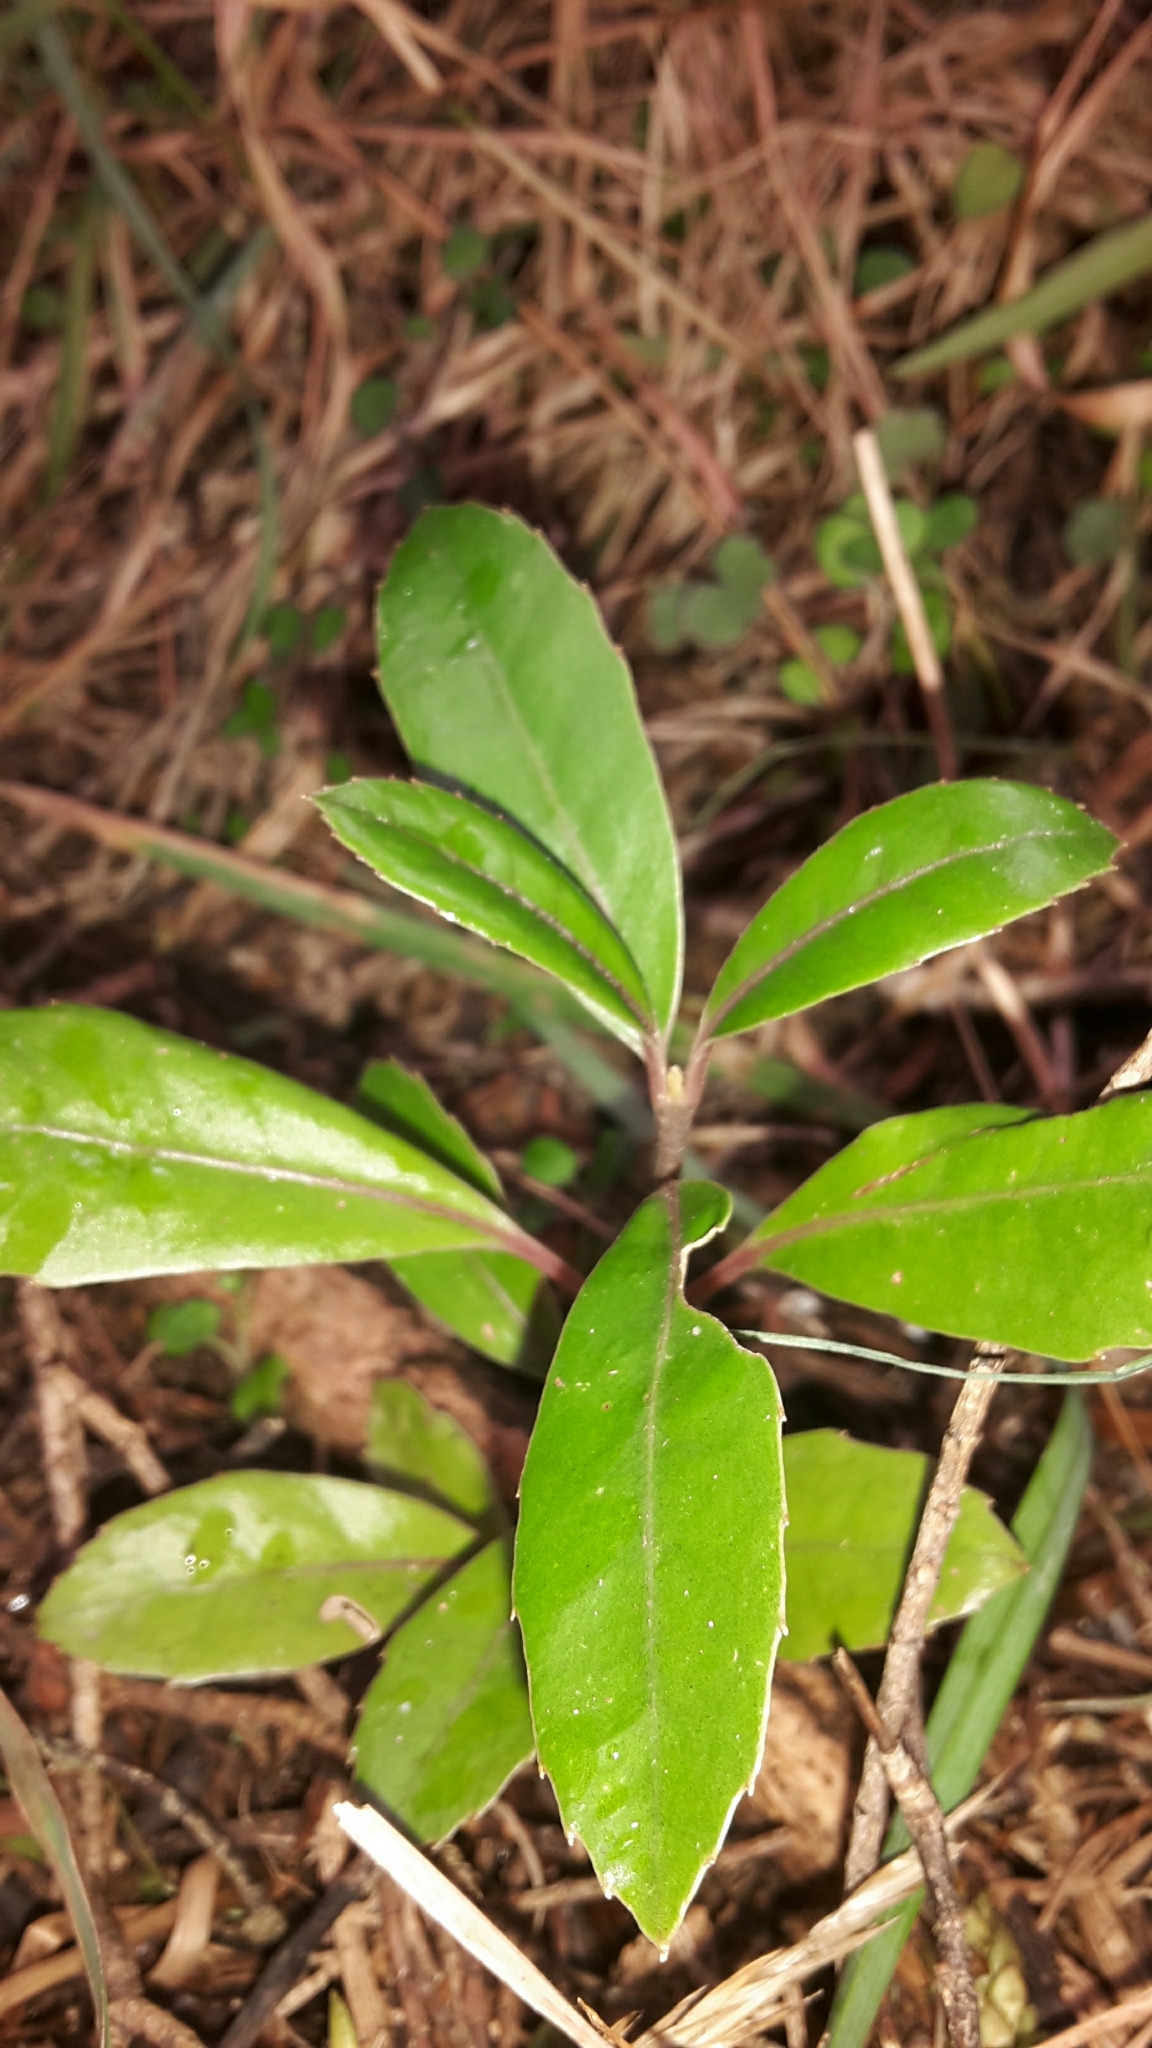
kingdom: Plantae
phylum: Tracheophyta
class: Magnoliopsida
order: Laurales
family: Monimiaceae
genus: Hedycarya
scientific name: Hedycarya arborea
